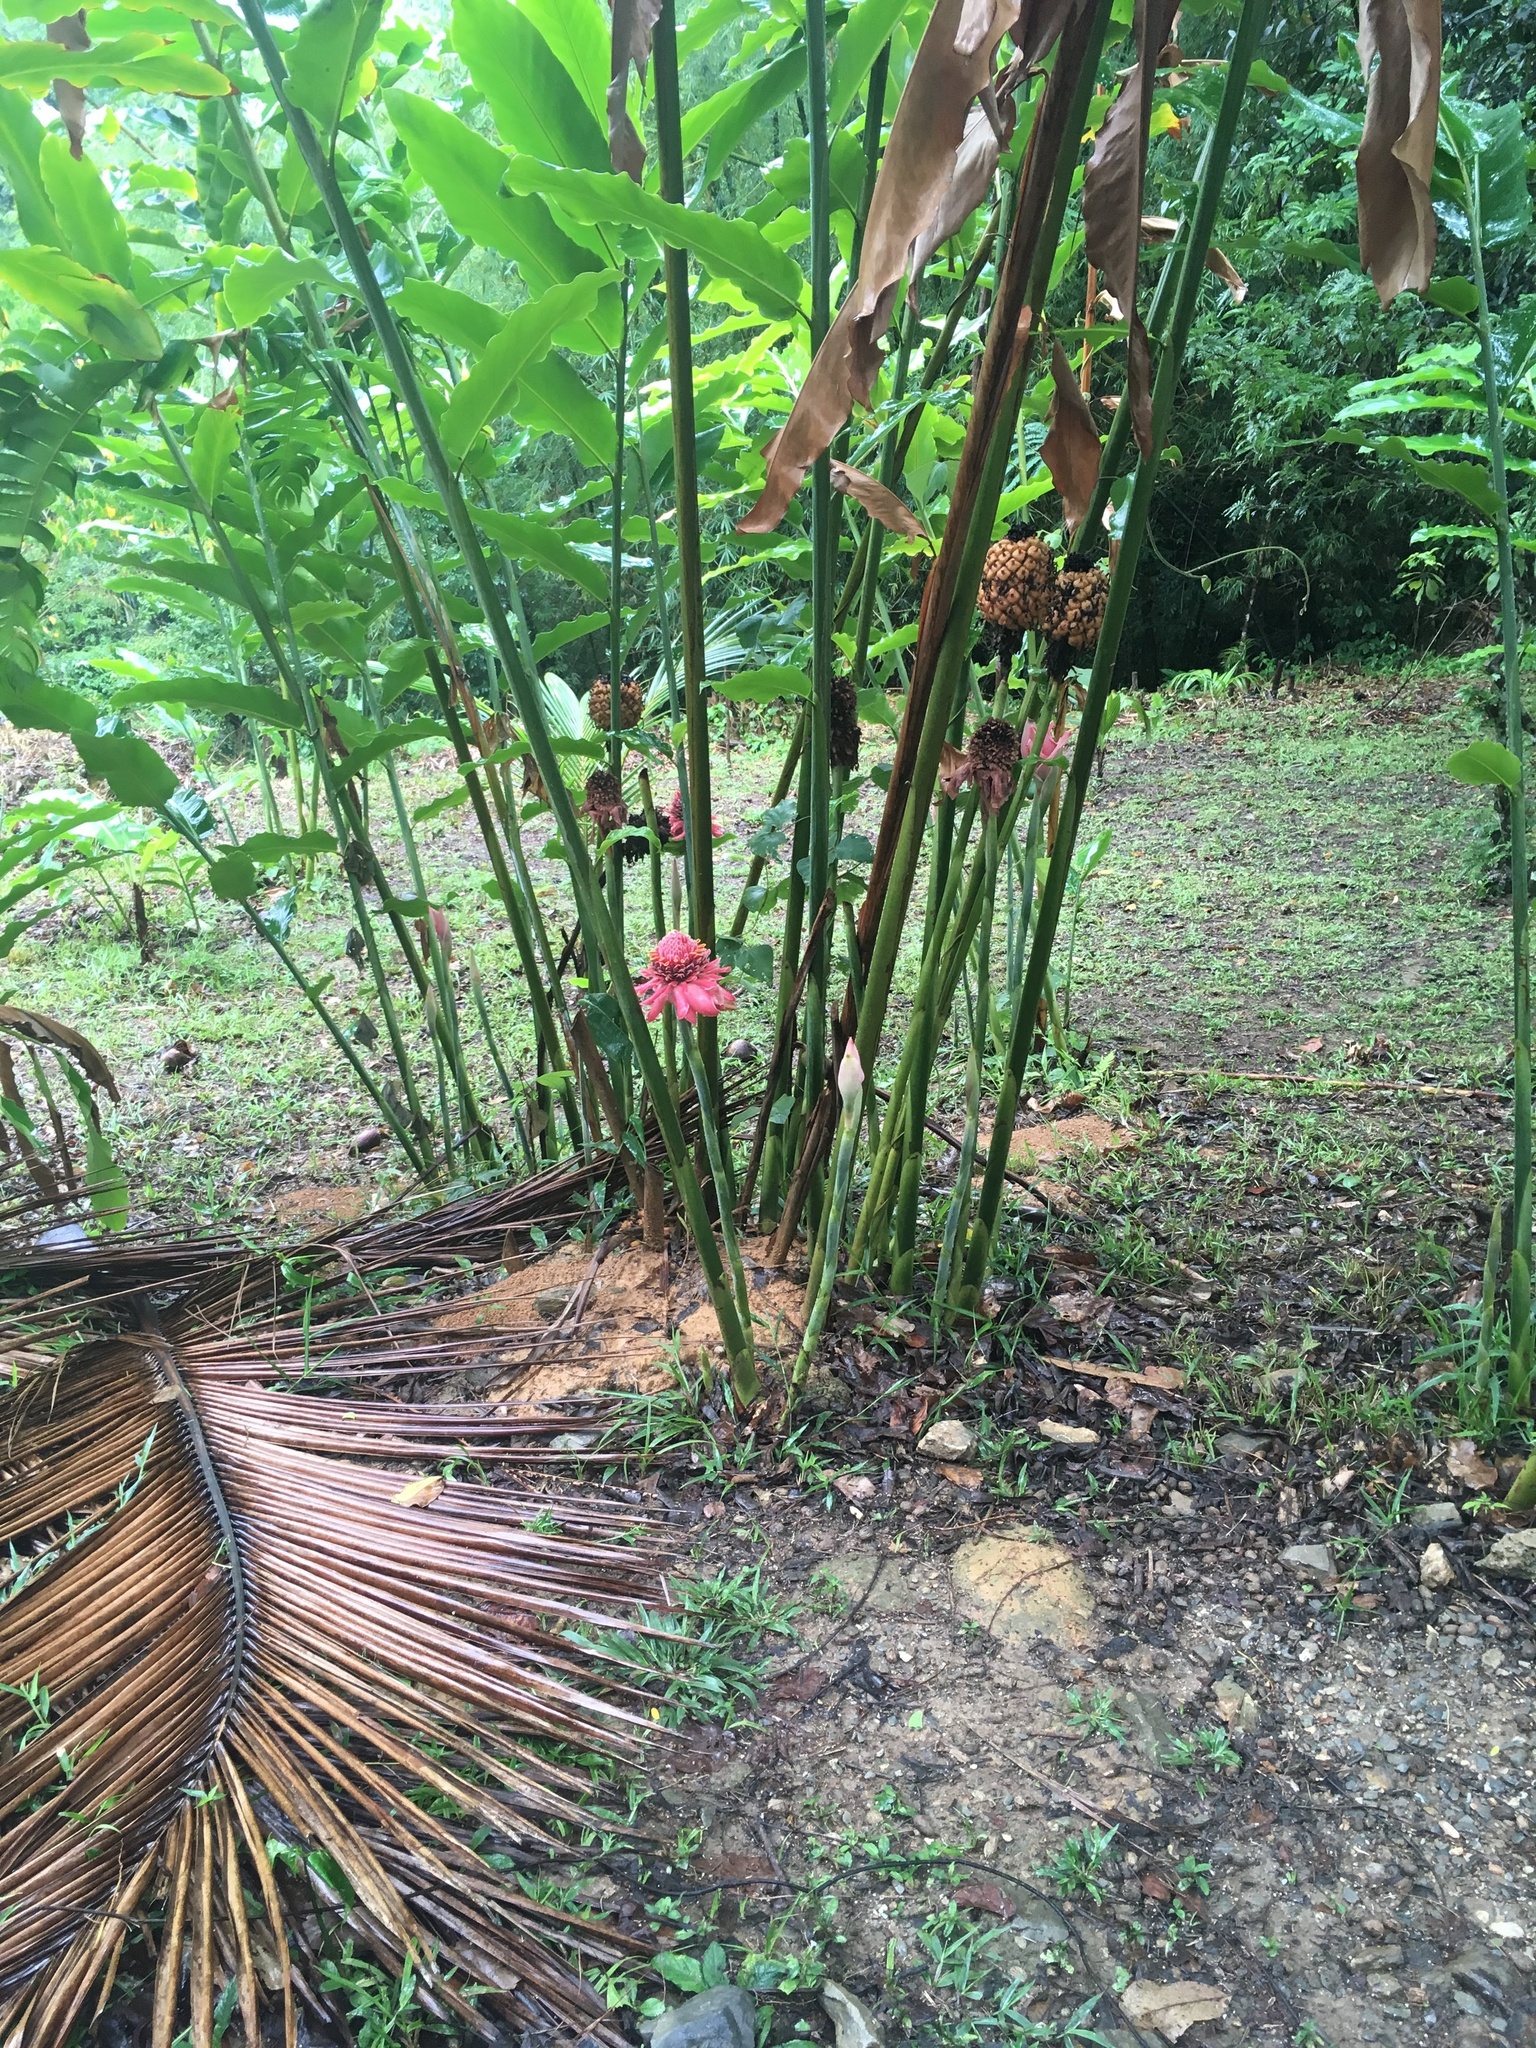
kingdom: Plantae
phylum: Tracheophyta
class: Liliopsida
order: Zingiberales
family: Zingiberaceae
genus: Etlingera
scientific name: Etlingera elatior
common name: Philippine waxflower
